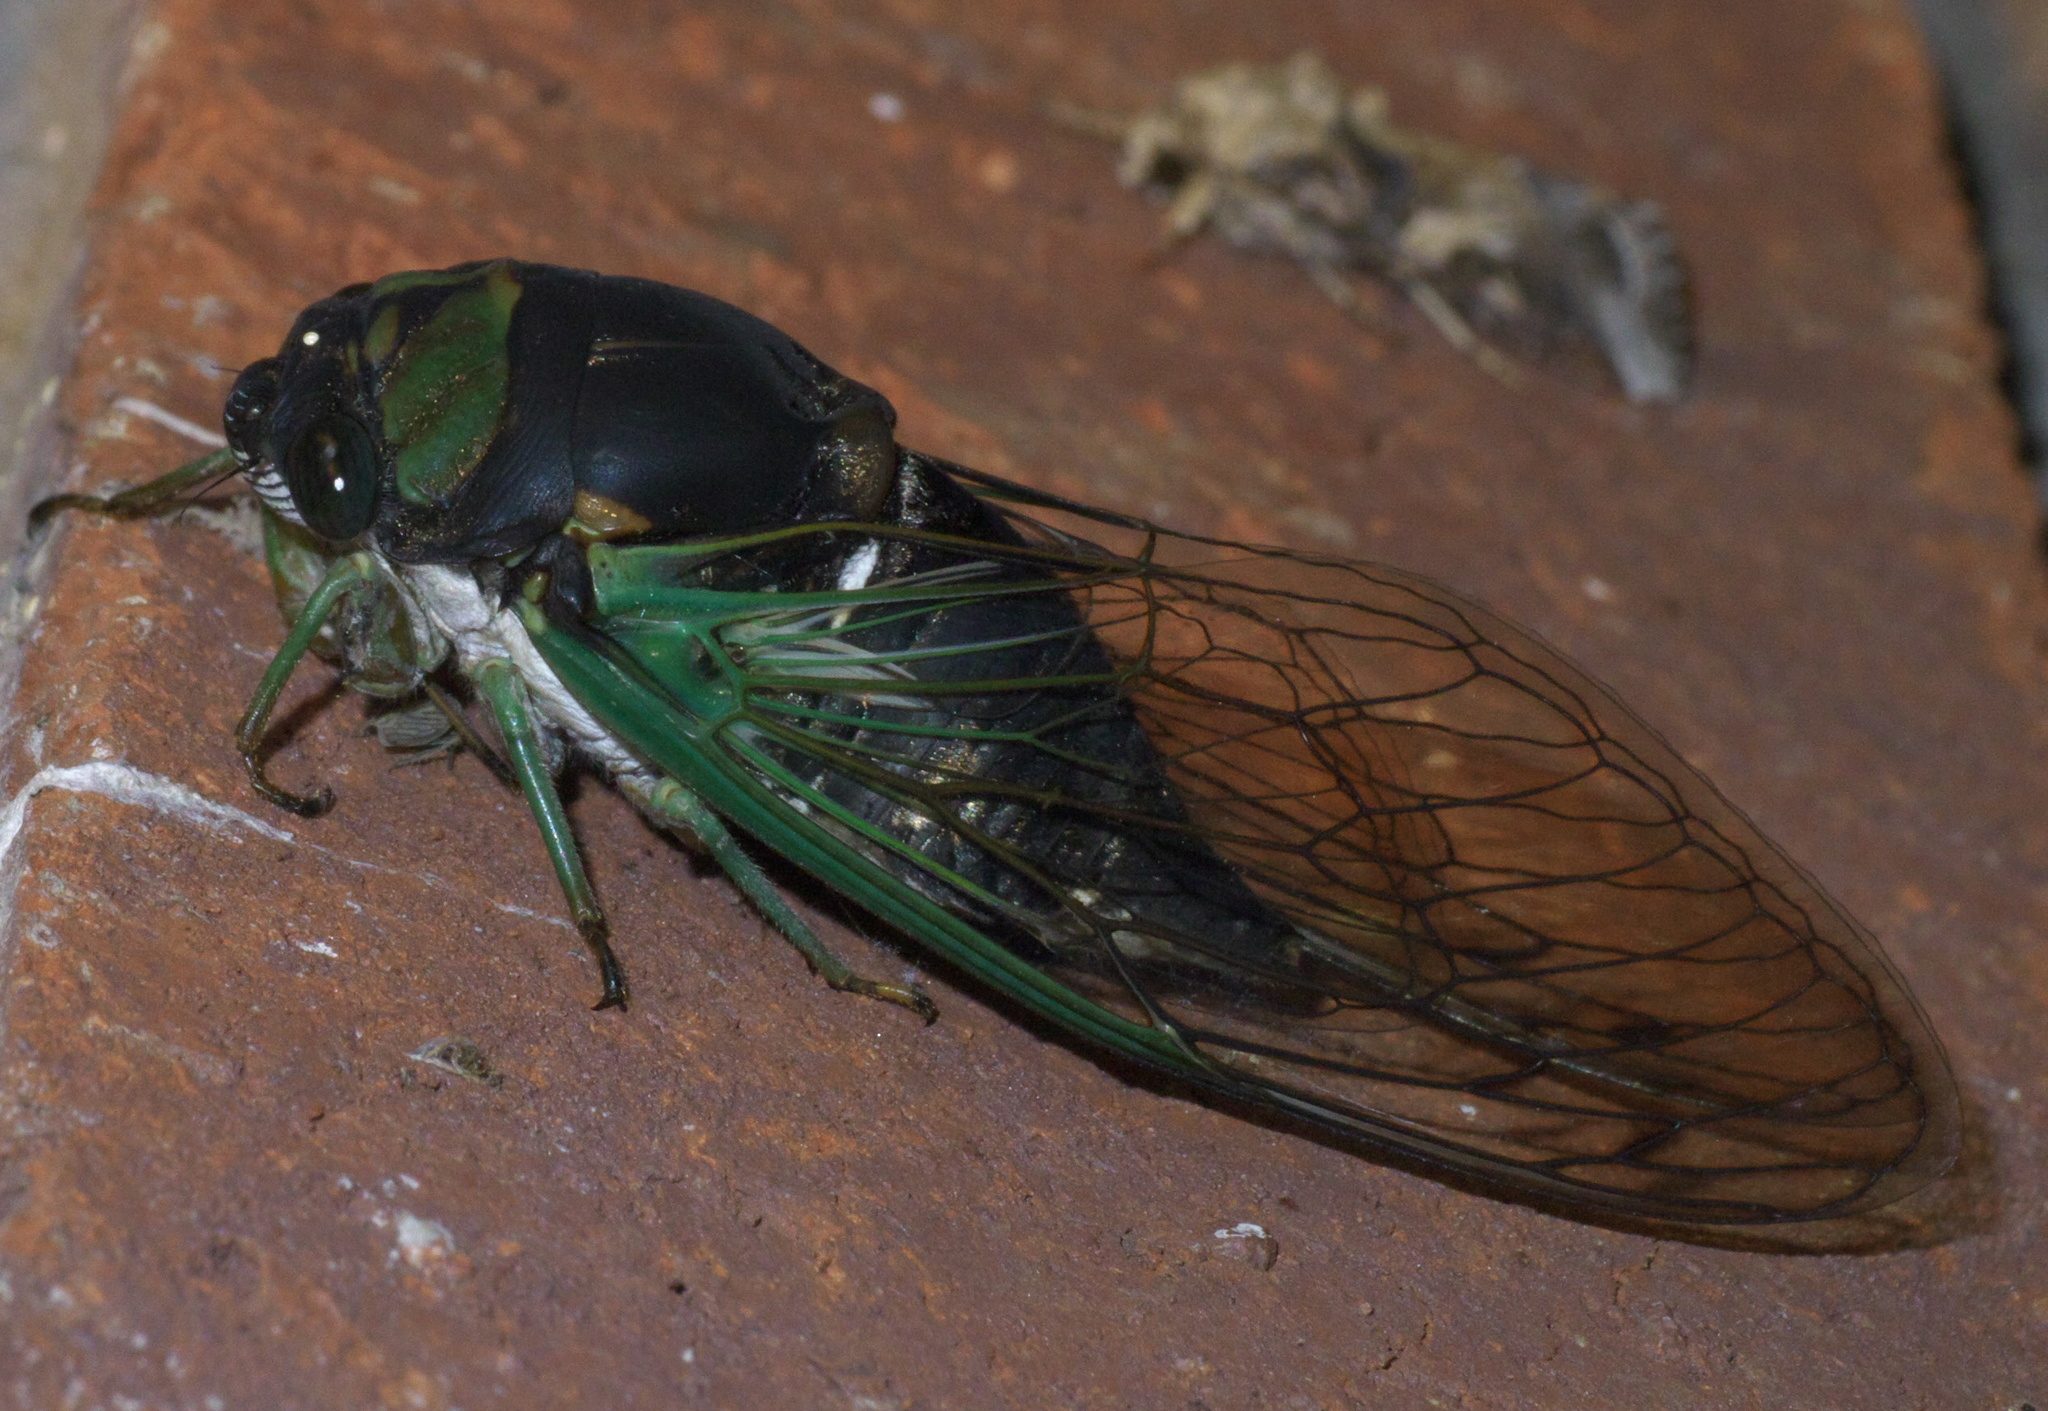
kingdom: Animalia
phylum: Arthropoda
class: Insecta
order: Hemiptera
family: Cicadidae
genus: Neotibicen
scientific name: Neotibicen tibicen
